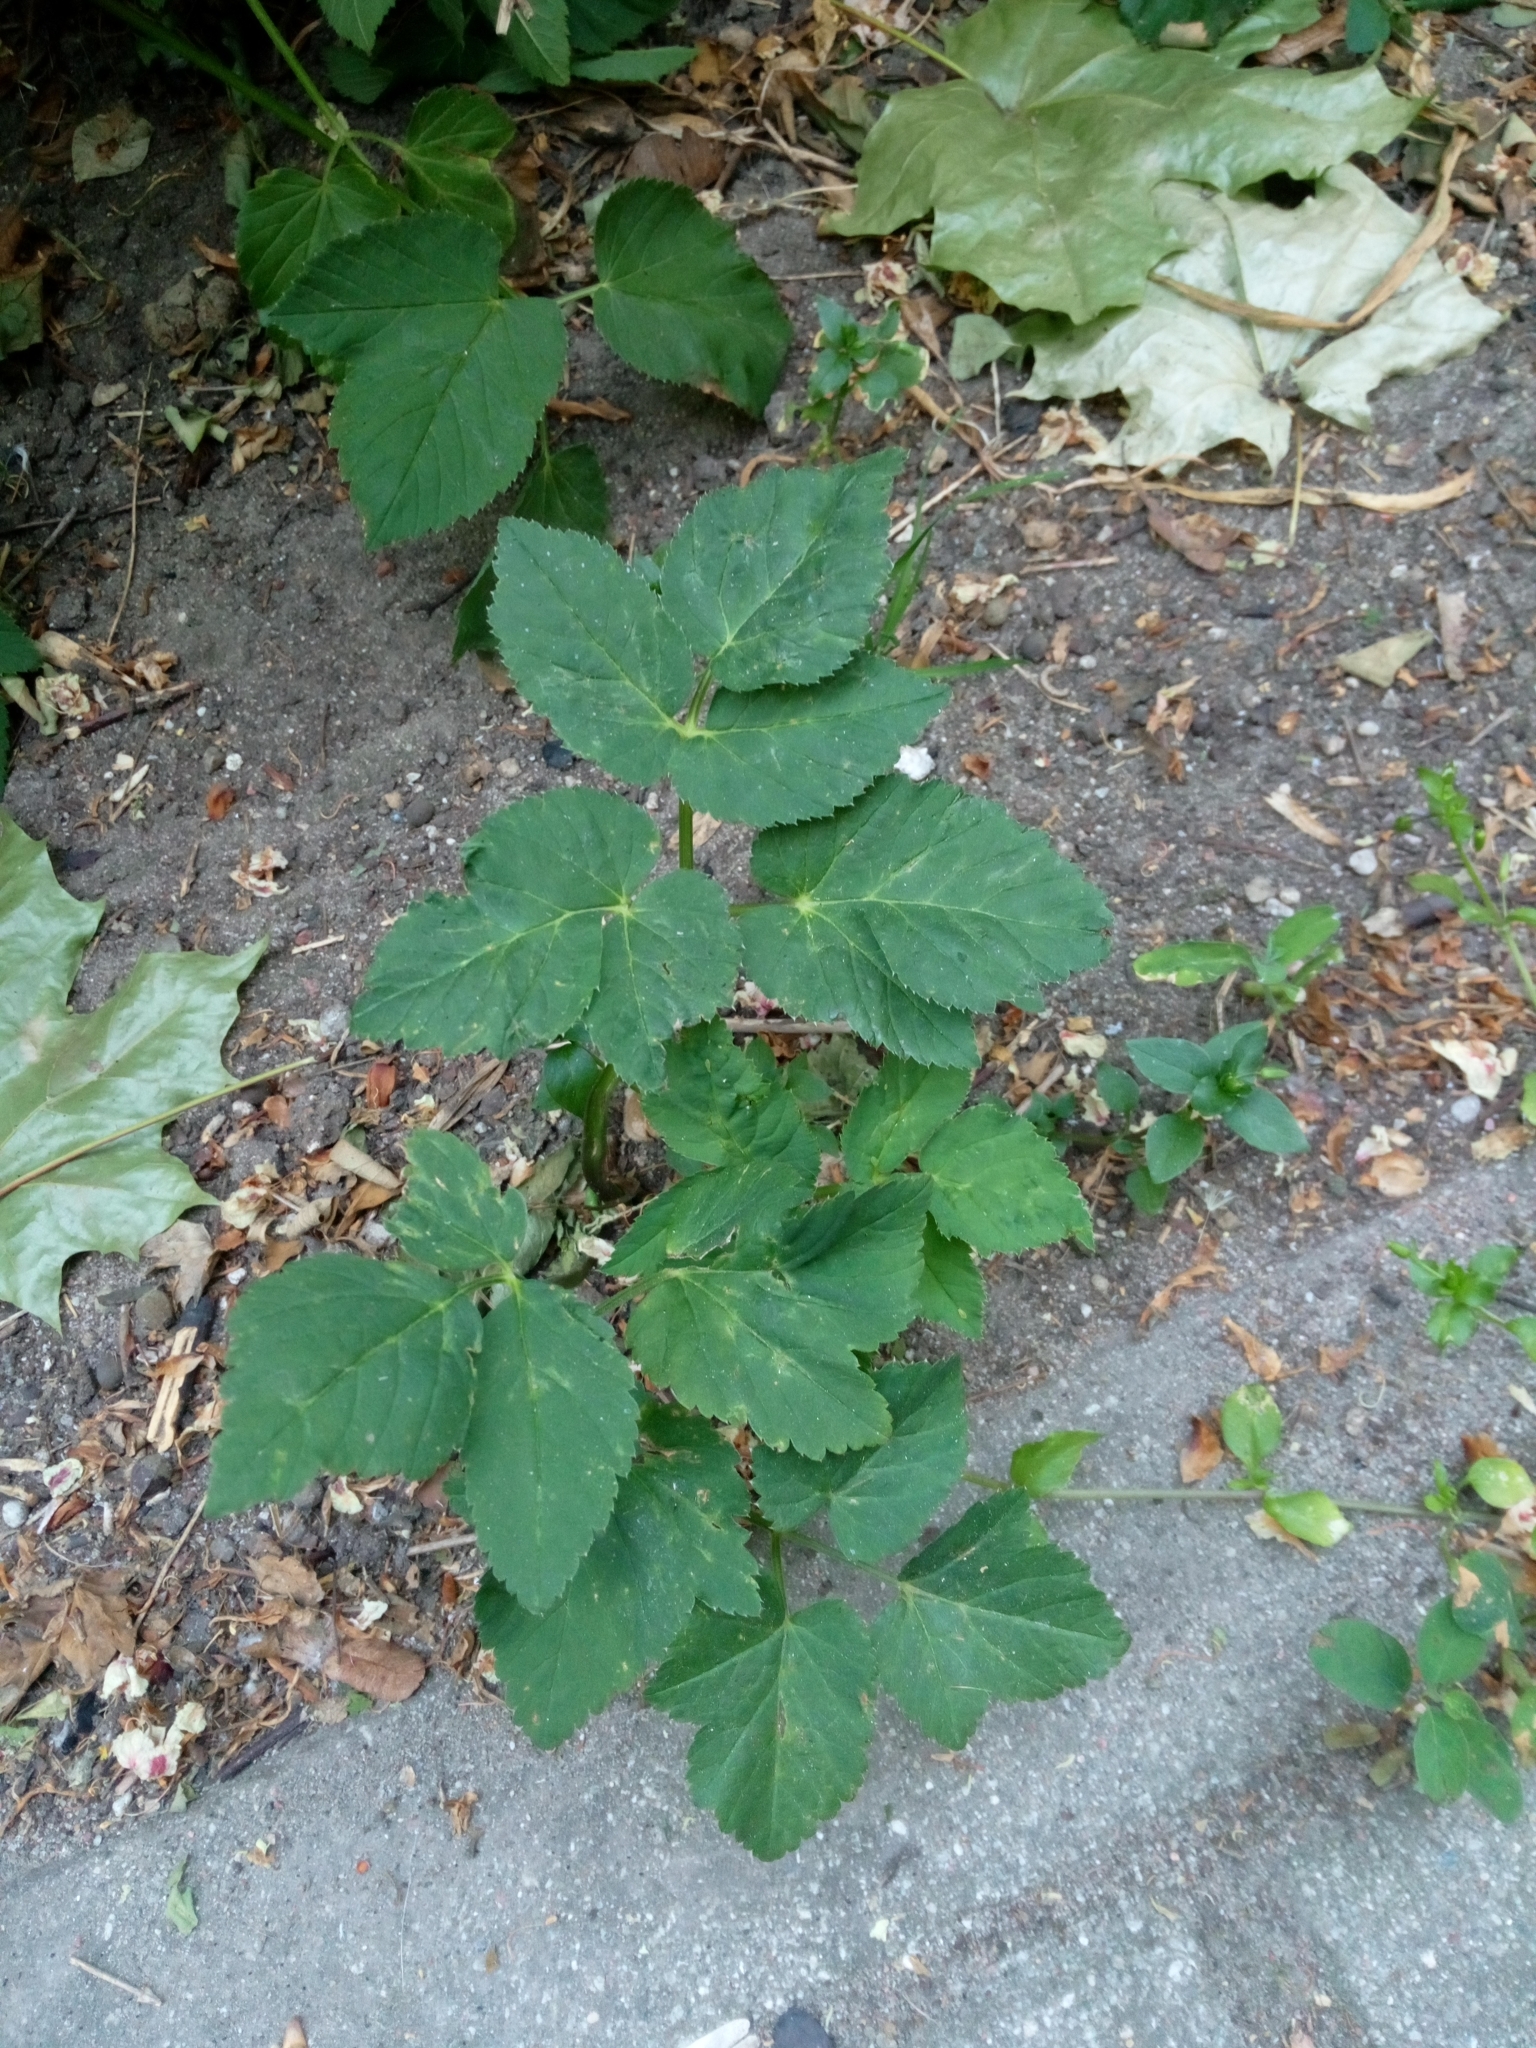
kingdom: Plantae
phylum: Tracheophyta
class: Magnoliopsida
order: Apiales
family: Apiaceae
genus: Aegopodium
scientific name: Aegopodium podagraria
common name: Ground-elder
